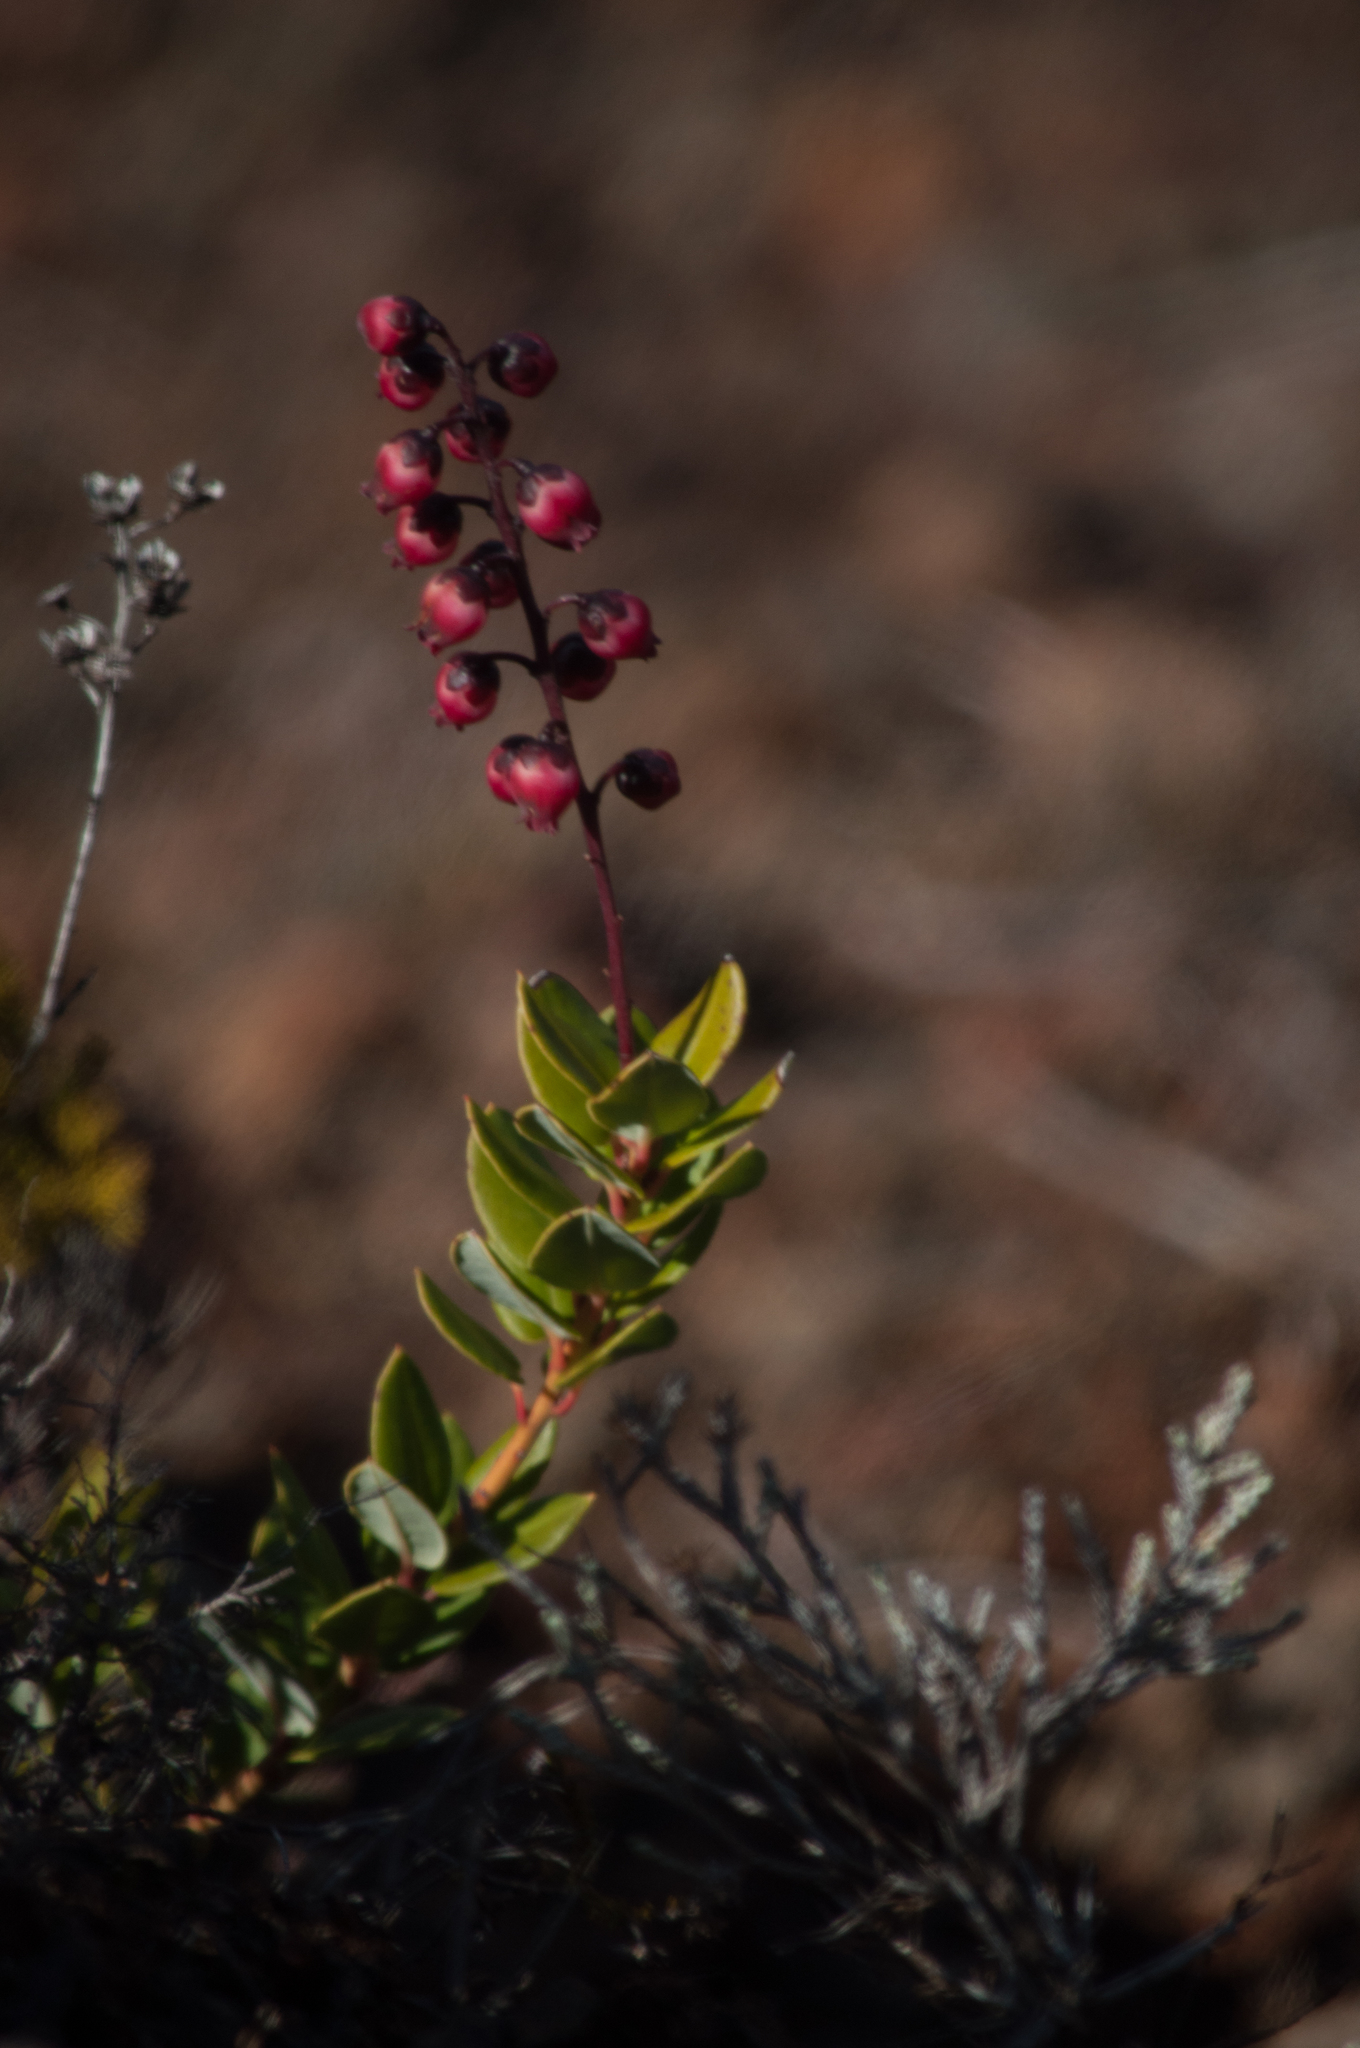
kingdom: Plantae
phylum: Tracheophyta
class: Magnoliopsida
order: Ericales
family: Ericaceae
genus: Agarista
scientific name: Agarista buxifolia
